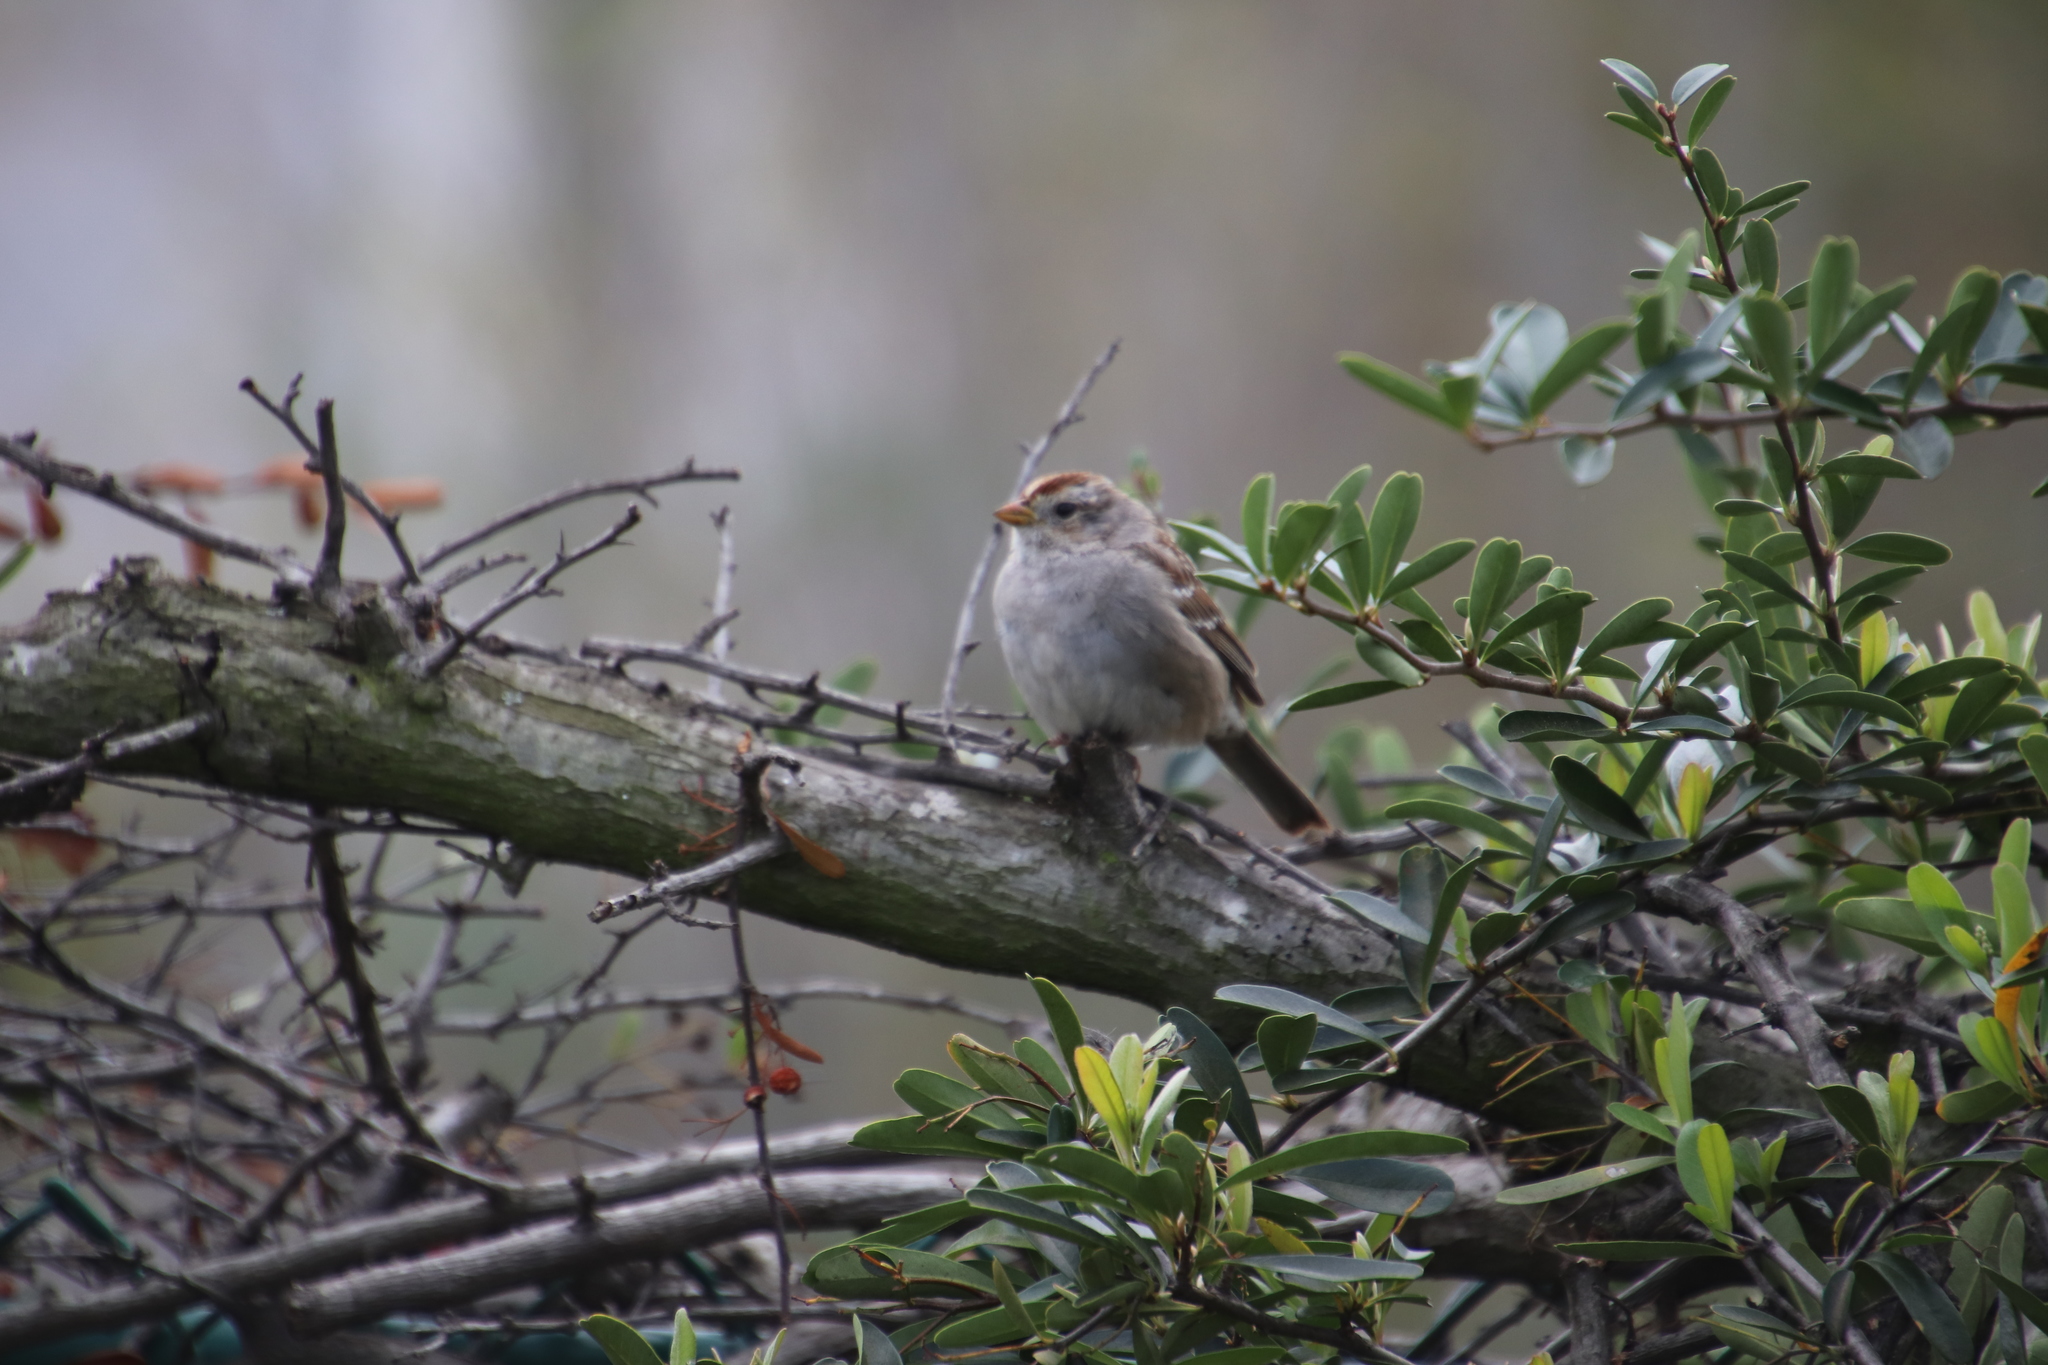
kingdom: Animalia
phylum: Chordata
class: Aves
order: Passeriformes
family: Passerellidae
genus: Zonotrichia
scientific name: Zonotrichia leucophrys
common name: White-crowned sparrow
